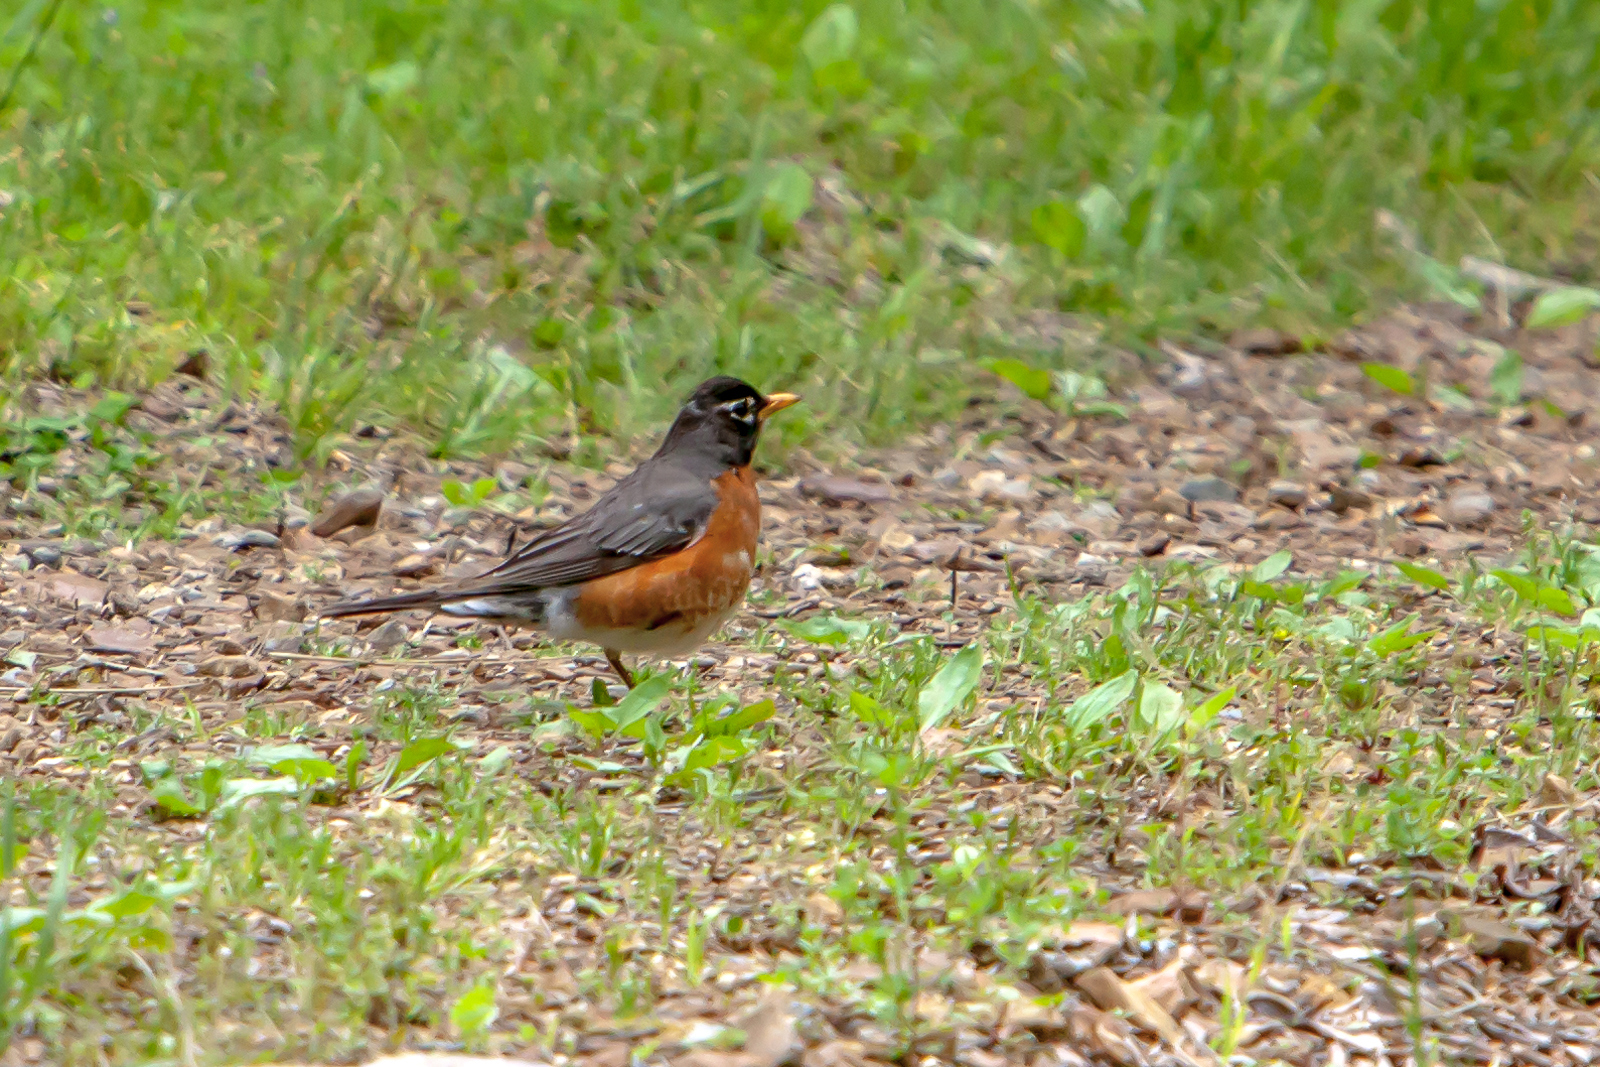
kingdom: Animalia
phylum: Chordata
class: Aves
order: Passeriformes
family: Turdidae
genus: Turdus
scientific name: Turdus migratorius
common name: American robin
